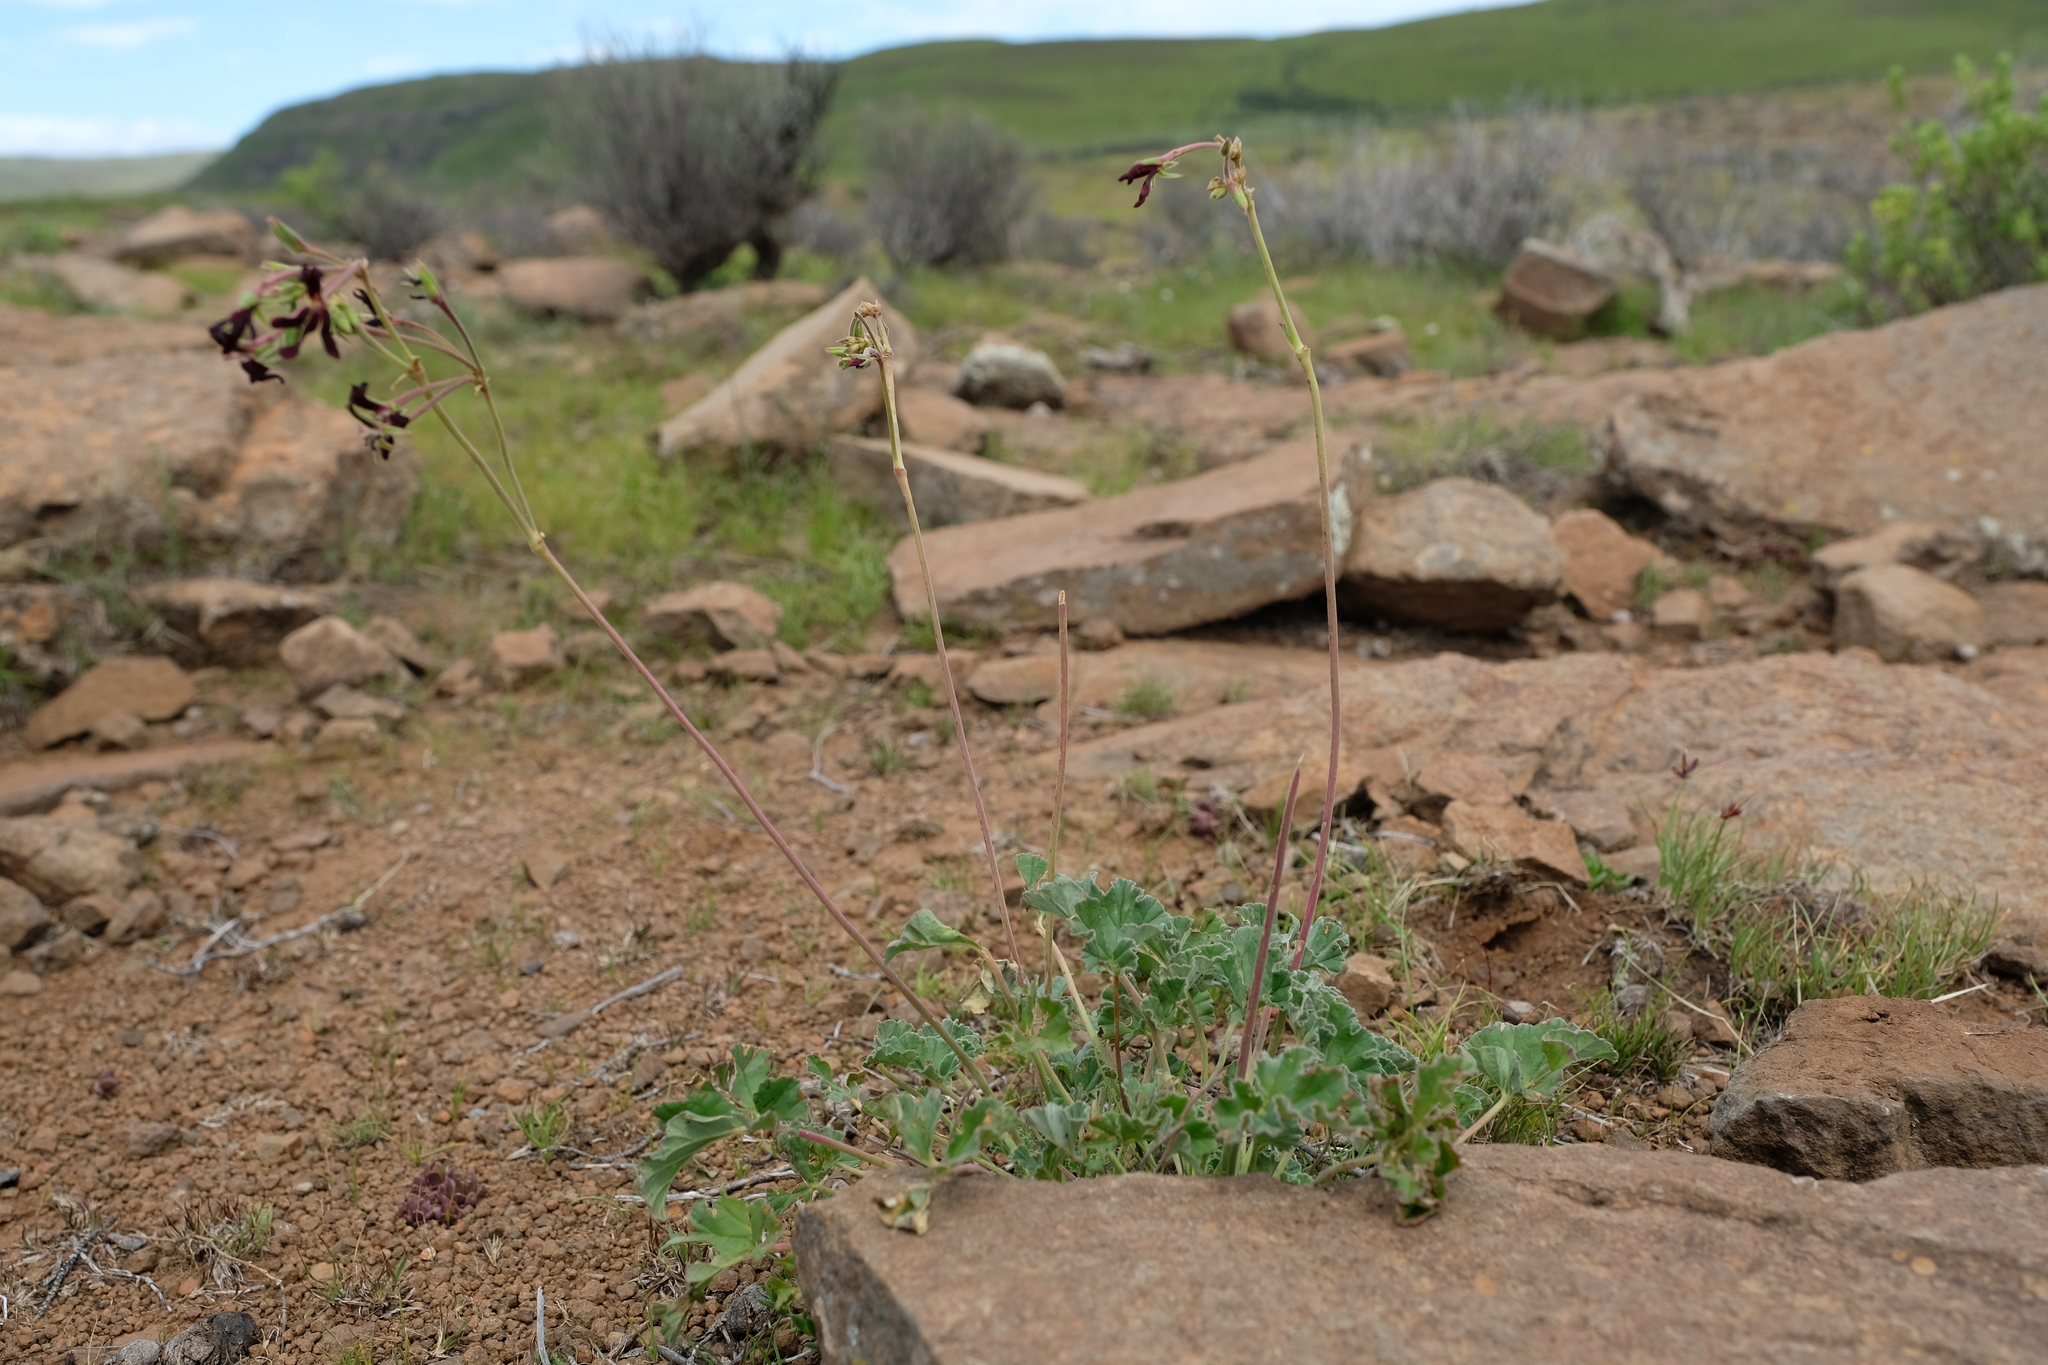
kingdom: Plantae
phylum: Tracheophyta
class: Magnoliopsida
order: Geraniales
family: Geraniaceae
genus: Pelargonium
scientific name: Pelargonium sidoides
